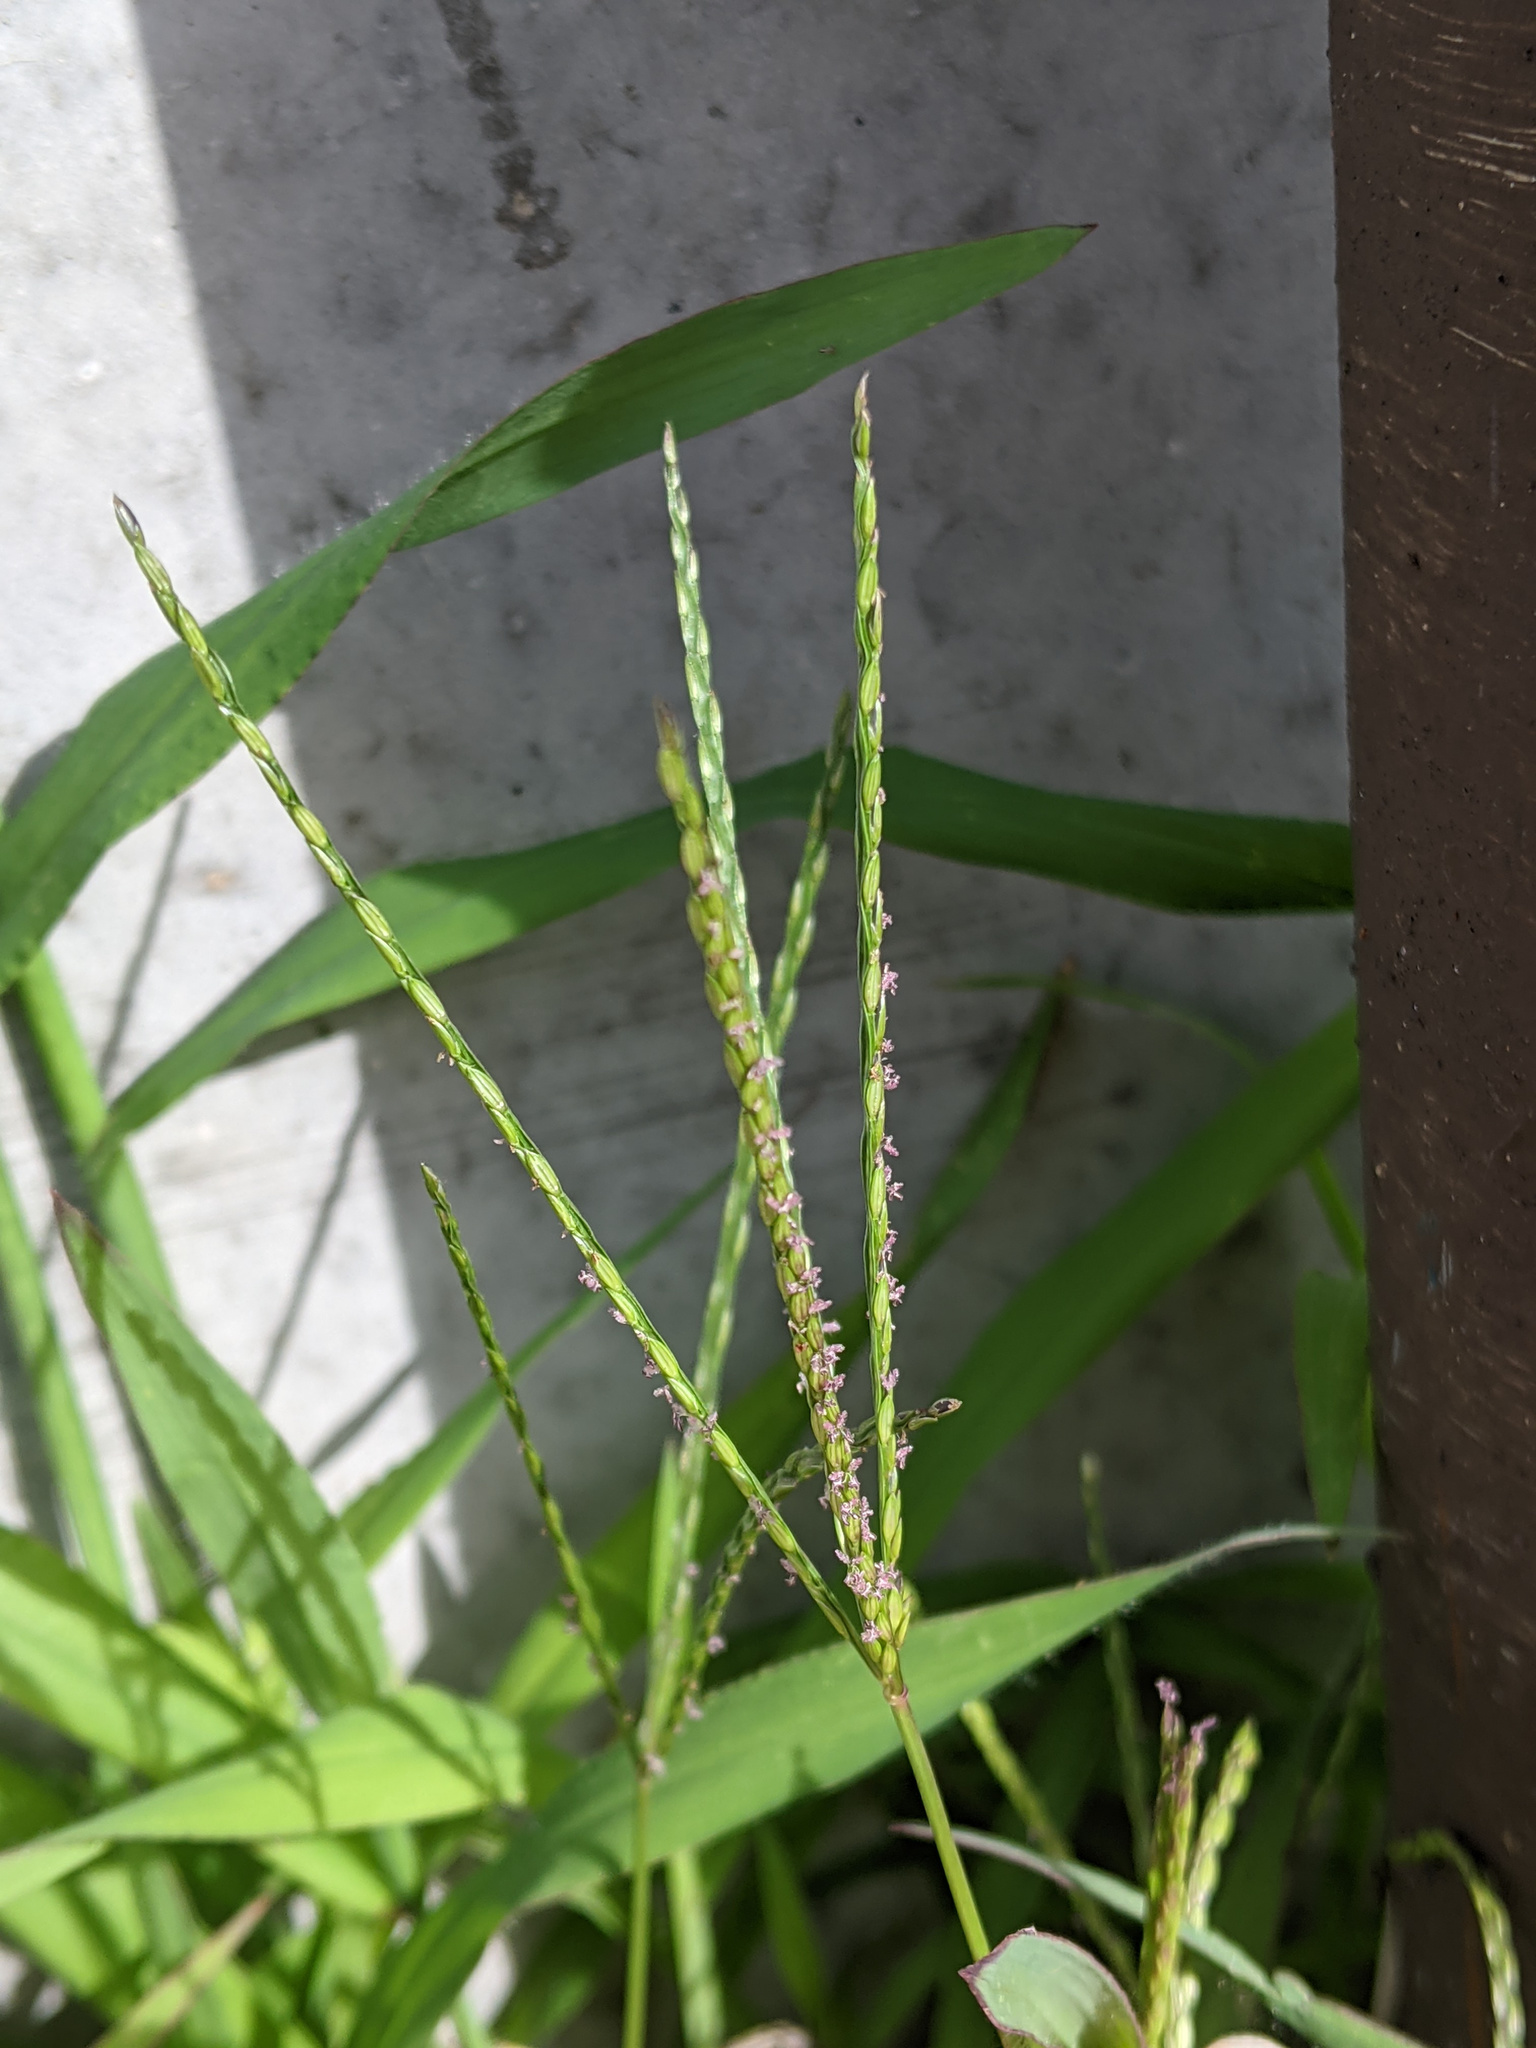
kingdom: Plantae
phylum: Tracheophyta
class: Liliopsida
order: Poales
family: Poaceae
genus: Digitaria
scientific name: Digitaria sanguinalis
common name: Hairy crabgrass
